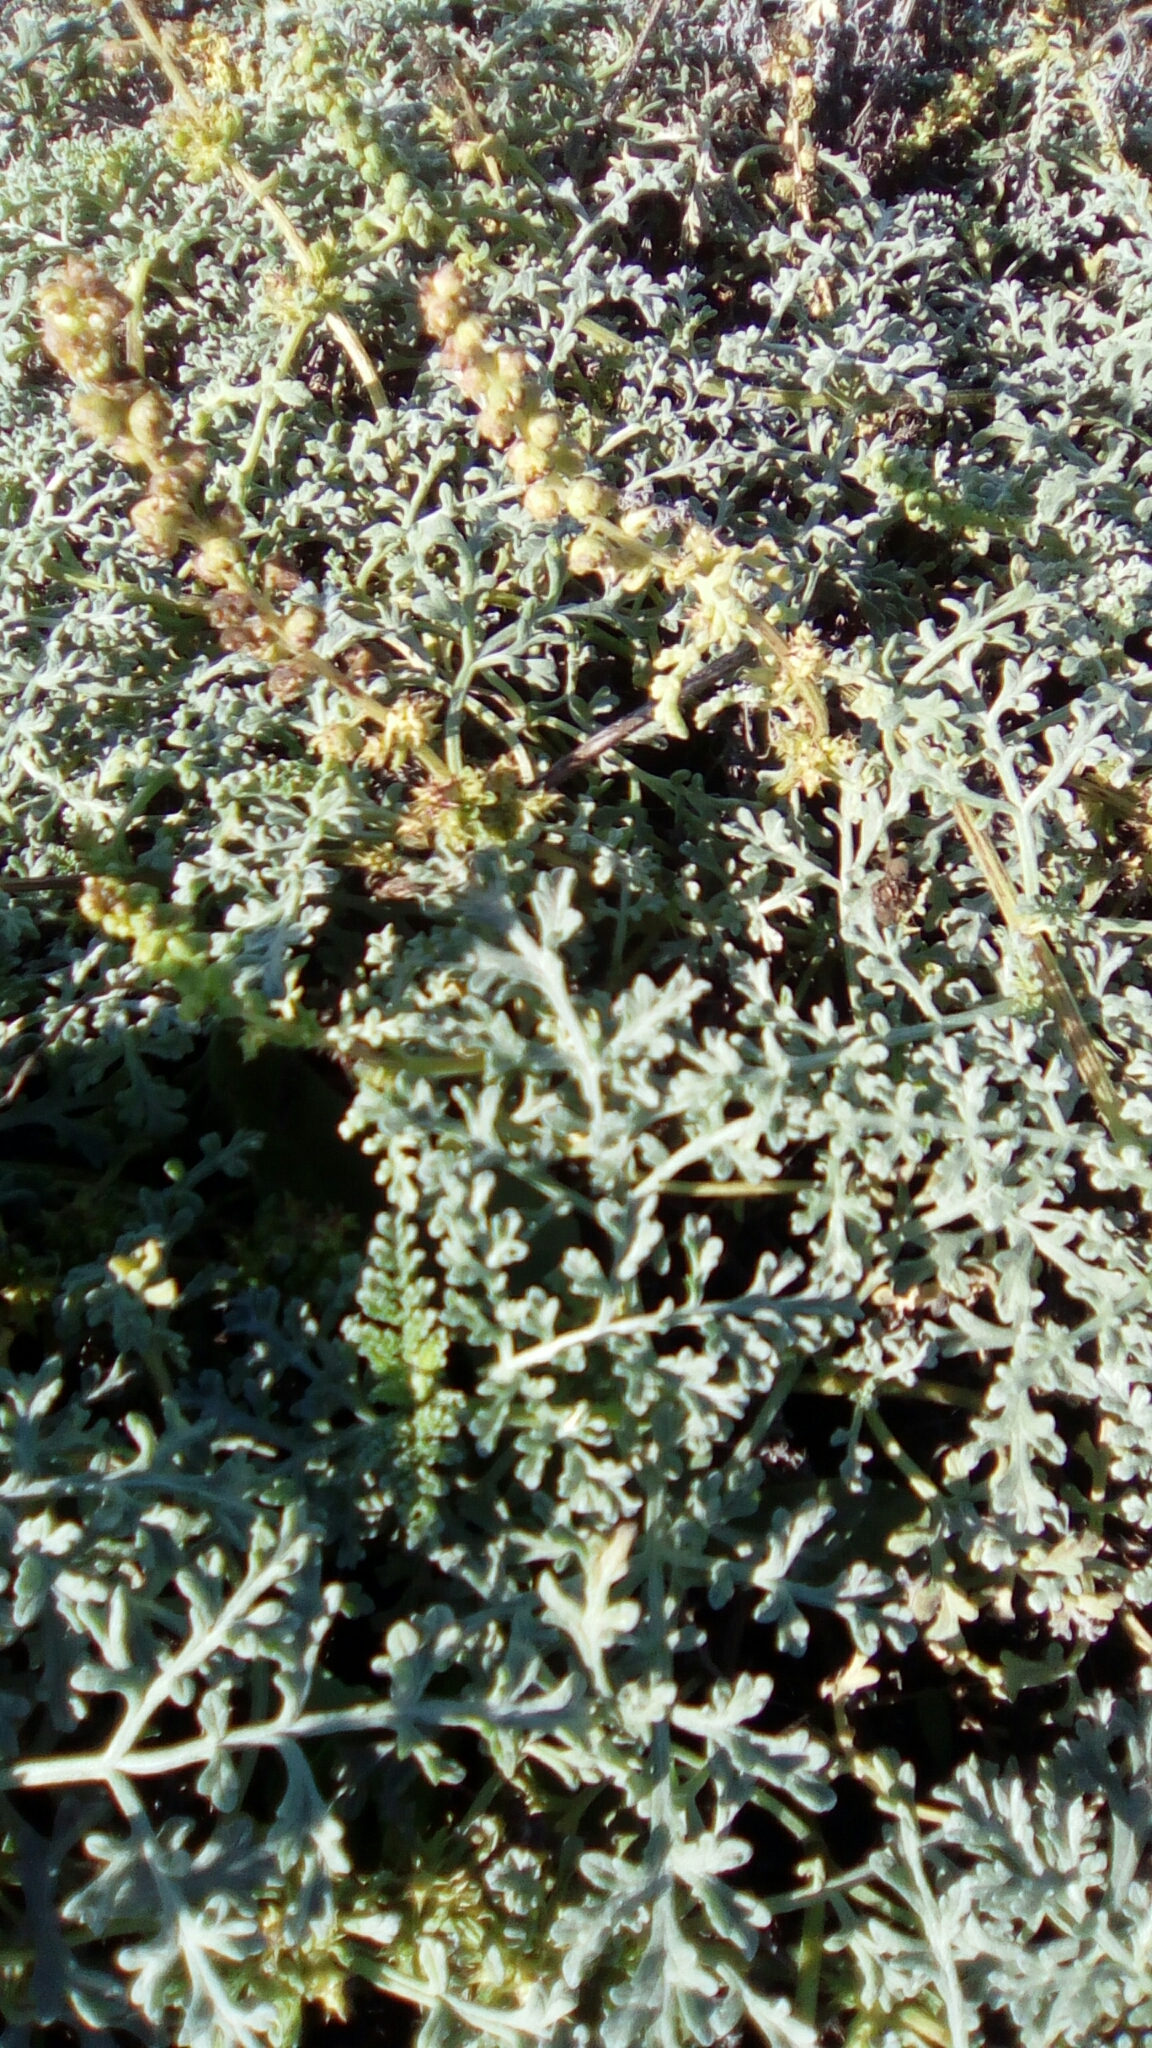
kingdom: Plantae
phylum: Tracheophyta
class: Magnoliopsida
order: Asterales
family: Asteraceae
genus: Ambrosia
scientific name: Ambrosia chamissonis
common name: Beachbur
